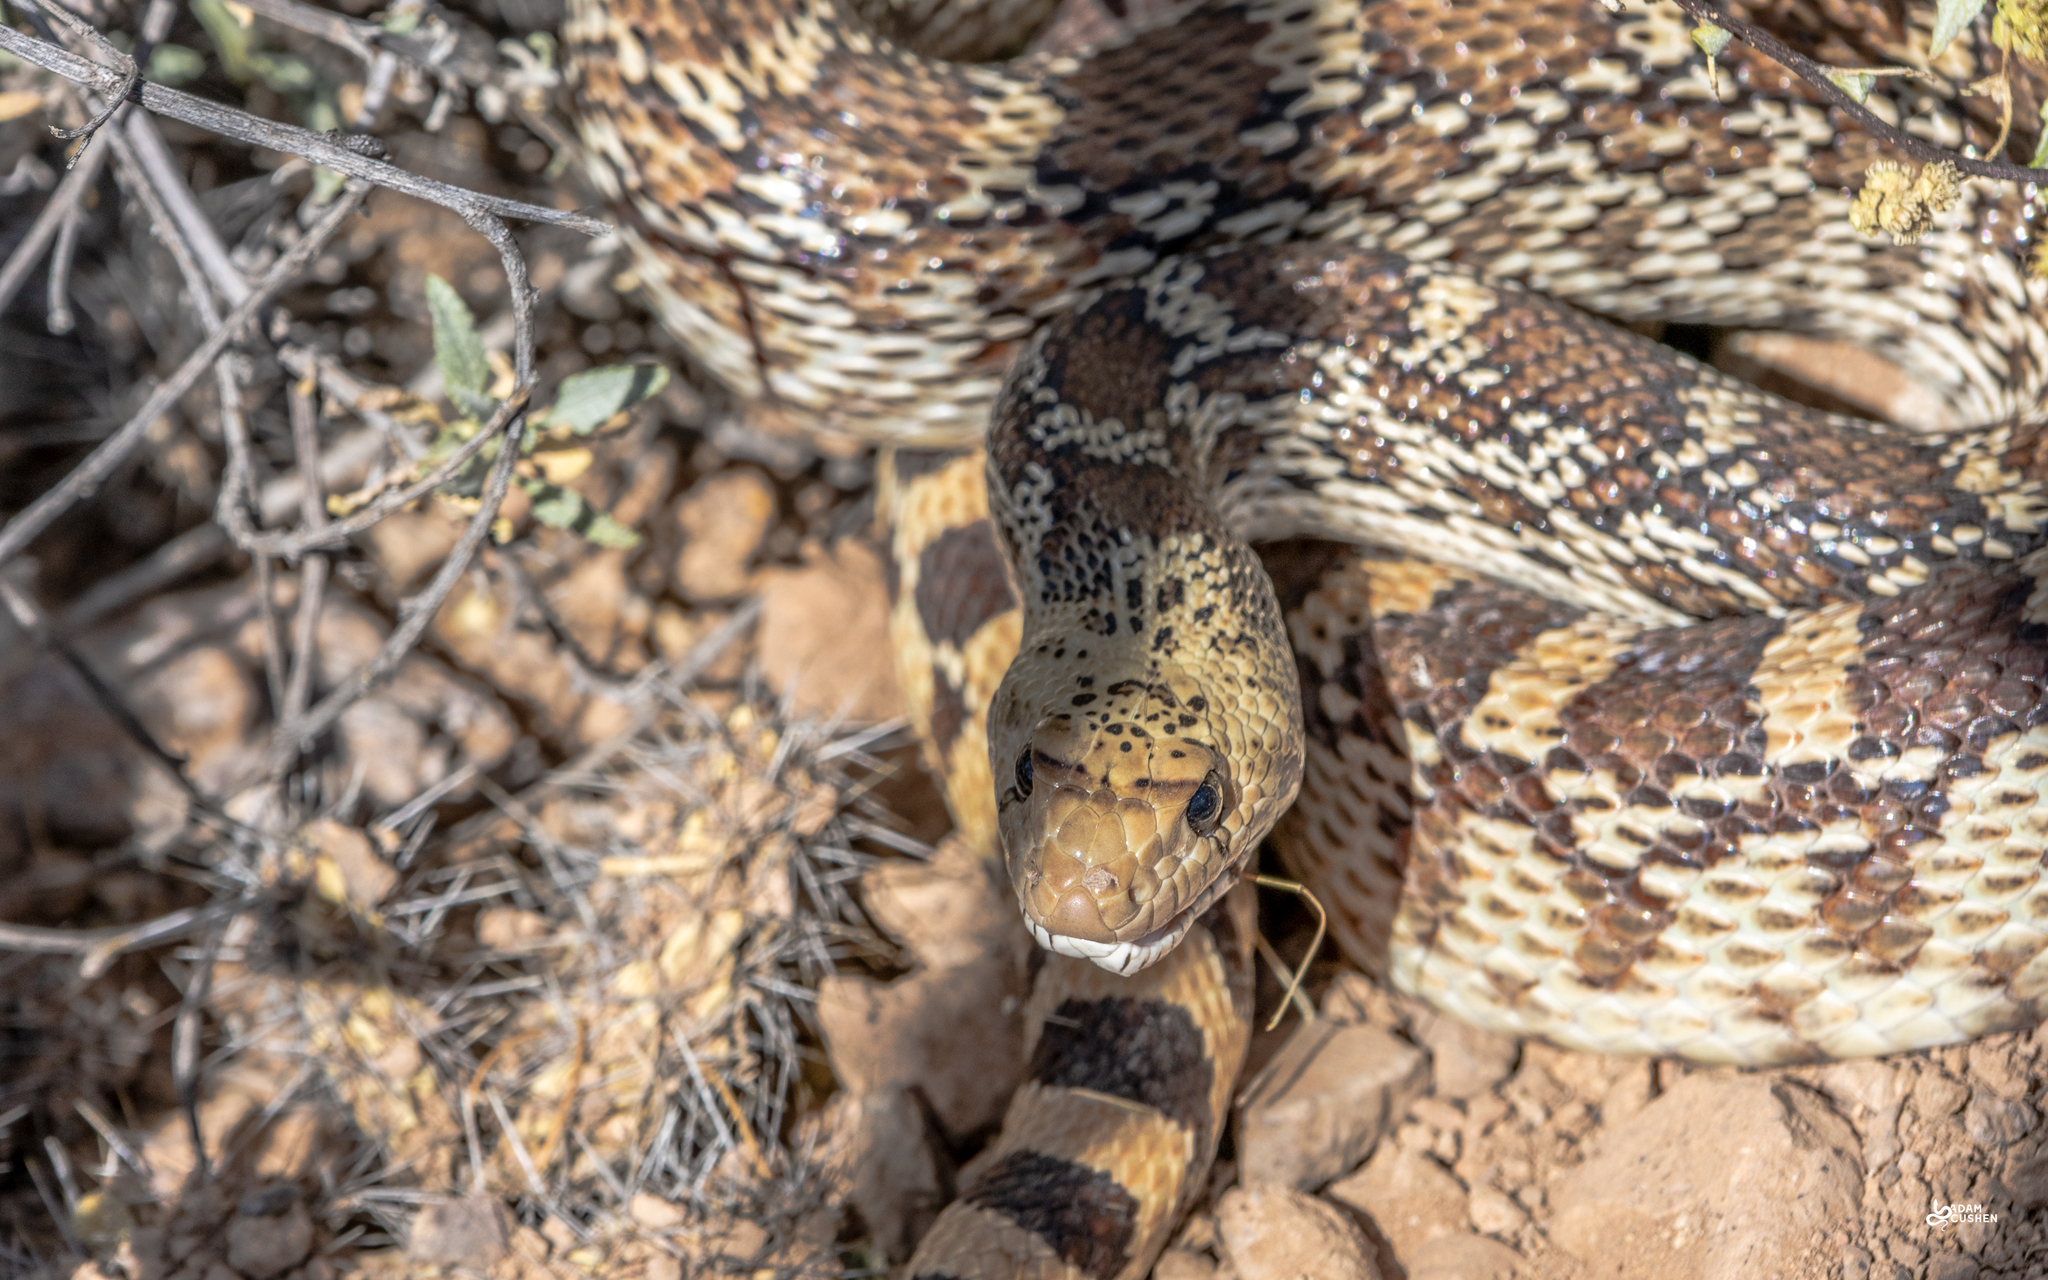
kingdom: Animalia
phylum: Chordata
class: Squamata
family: Colubridae
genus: Pituophis
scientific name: Pituophis catenifer
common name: Gopher snake
